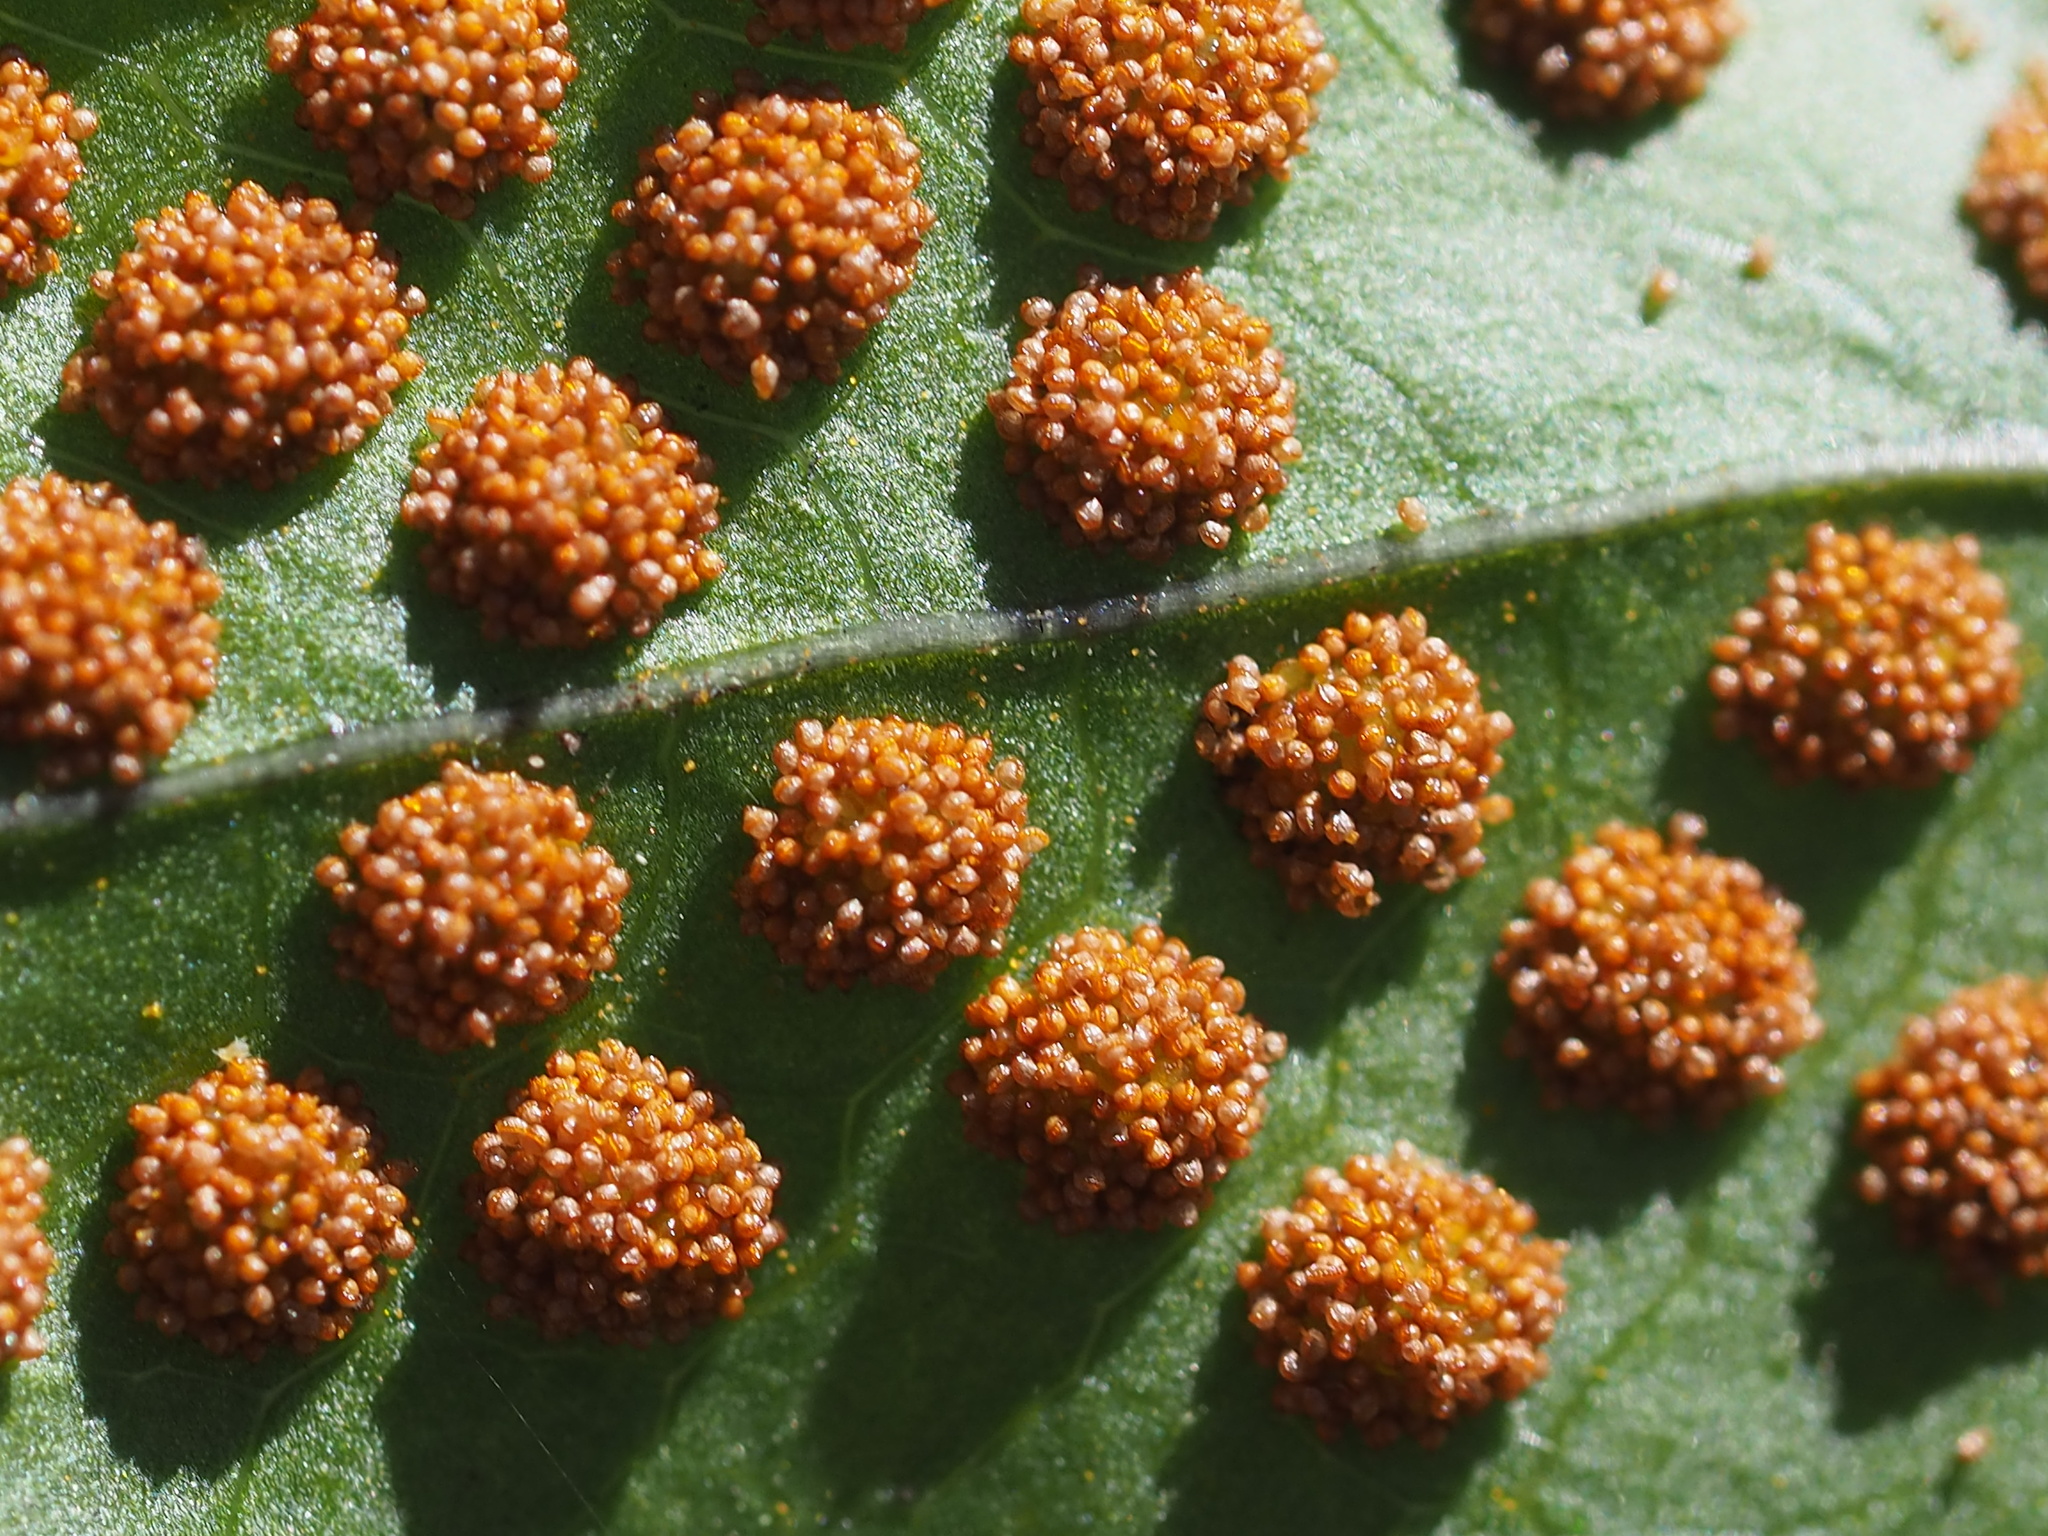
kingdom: Plantae
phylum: Tracheophyta
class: Polypodiopsida
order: Polypodiales
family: Polypodiaceae
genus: Drynaria
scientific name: Drynaria roosii
